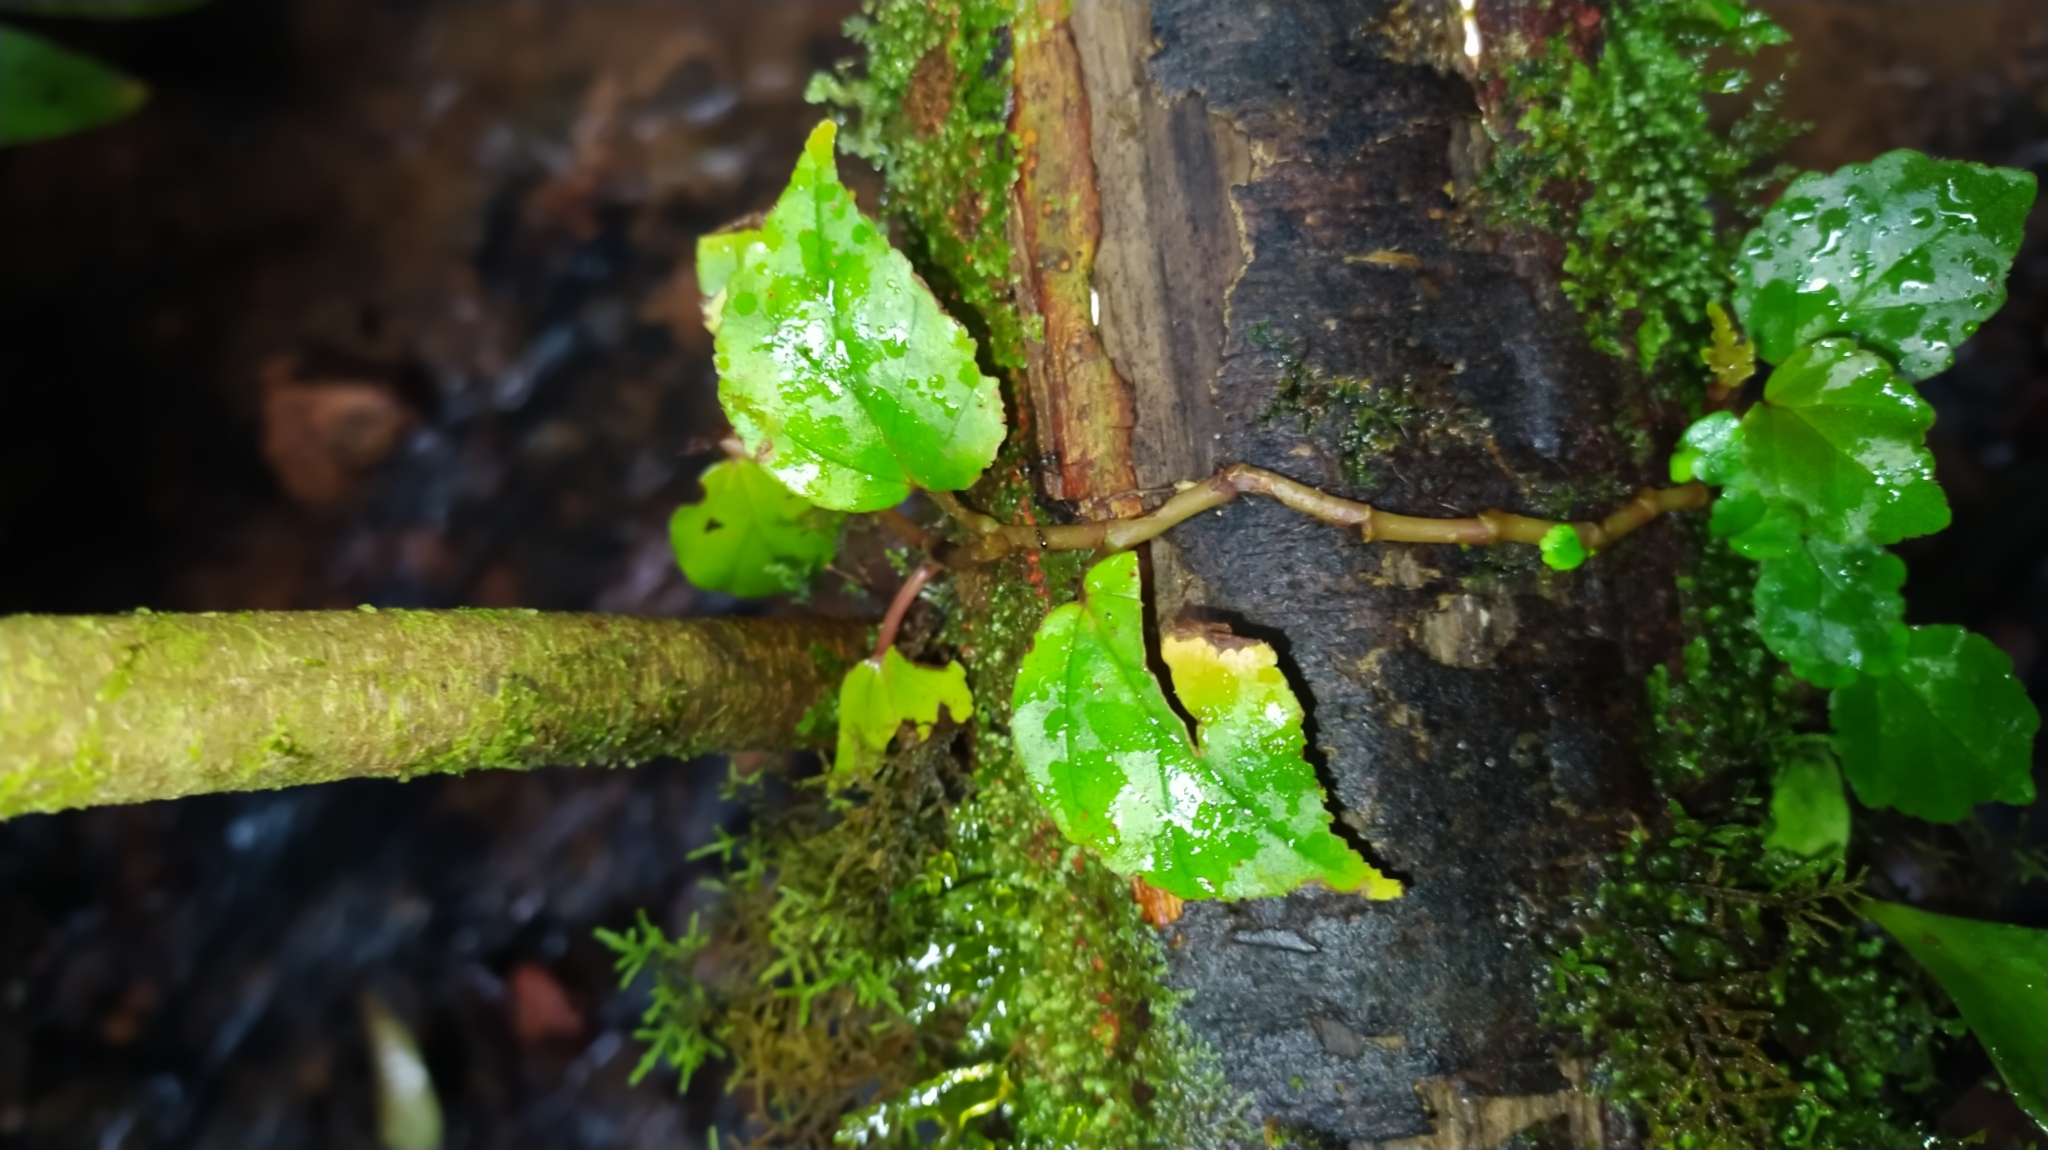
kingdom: Plantae
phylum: Tracheophyta
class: Magnoliopsida
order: Cucurbitales
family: Begoniaceae
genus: Begonia
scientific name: Begonia glabra
